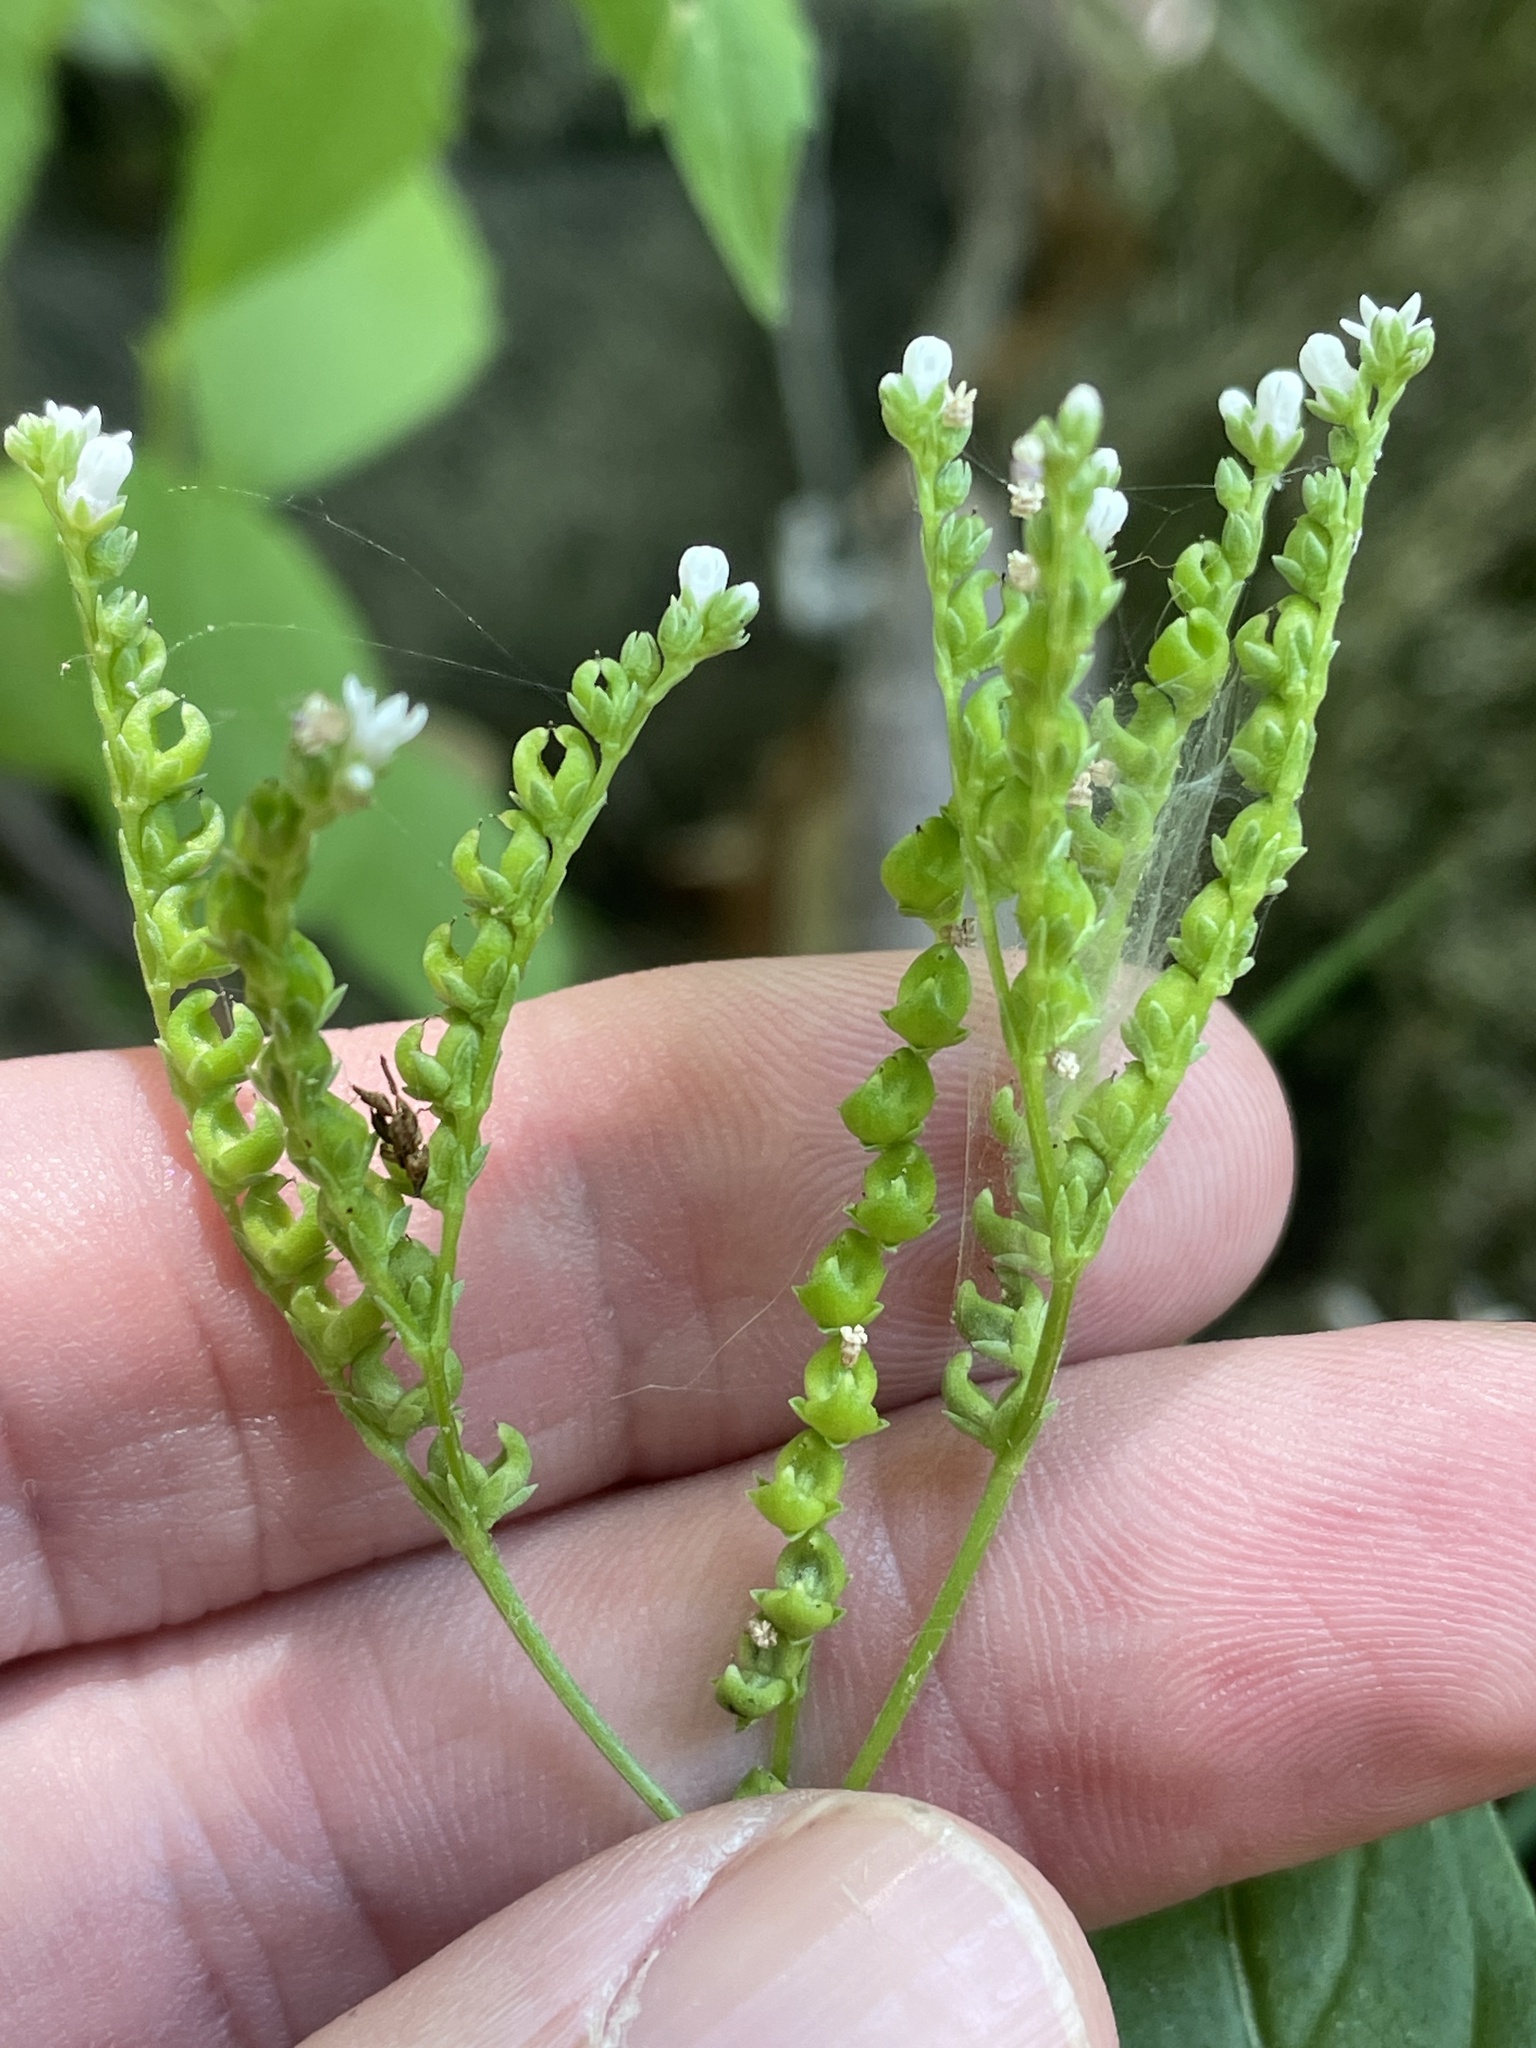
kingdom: Plantae
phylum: Tracheophyta
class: Magnoliopsida
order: Gentianales
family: Loganiaceae
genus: Mitreola
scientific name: Mitreola petiolata
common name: Lax hornpod
